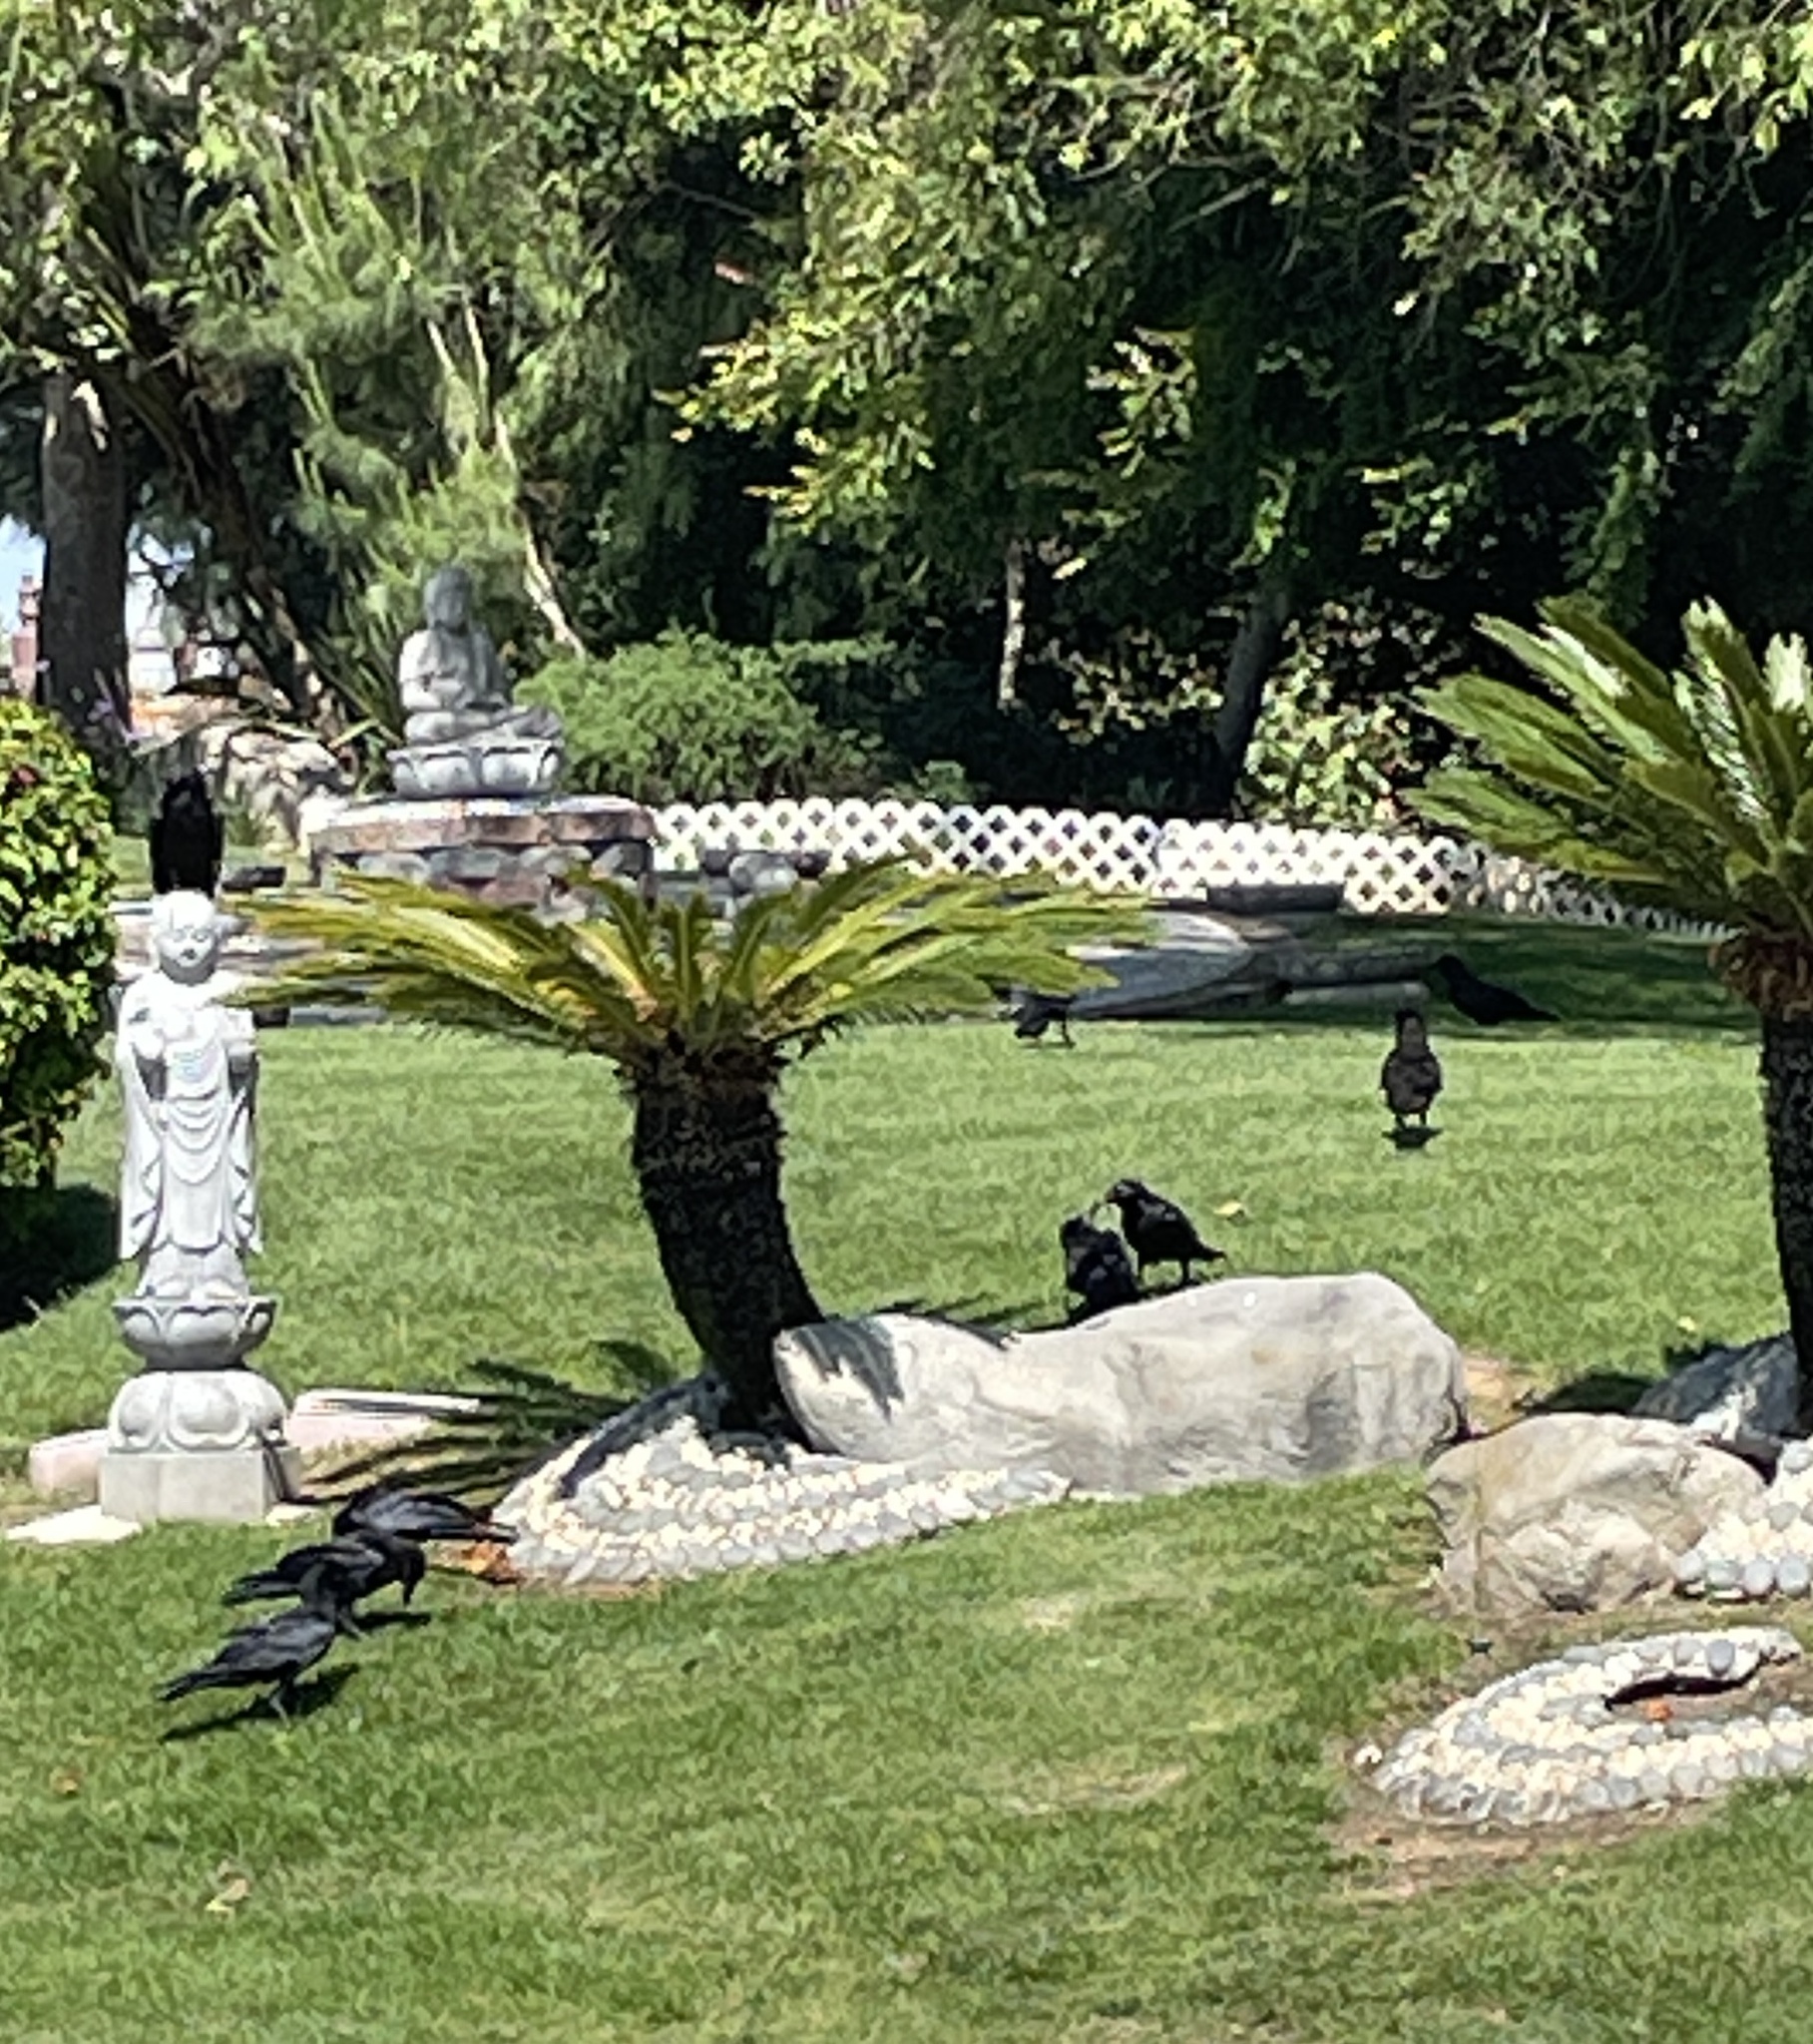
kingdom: Animalia
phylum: Chordata
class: Aves
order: Passeriformes
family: Corvidae
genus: Corvus
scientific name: Corvus corax
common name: Common raven
